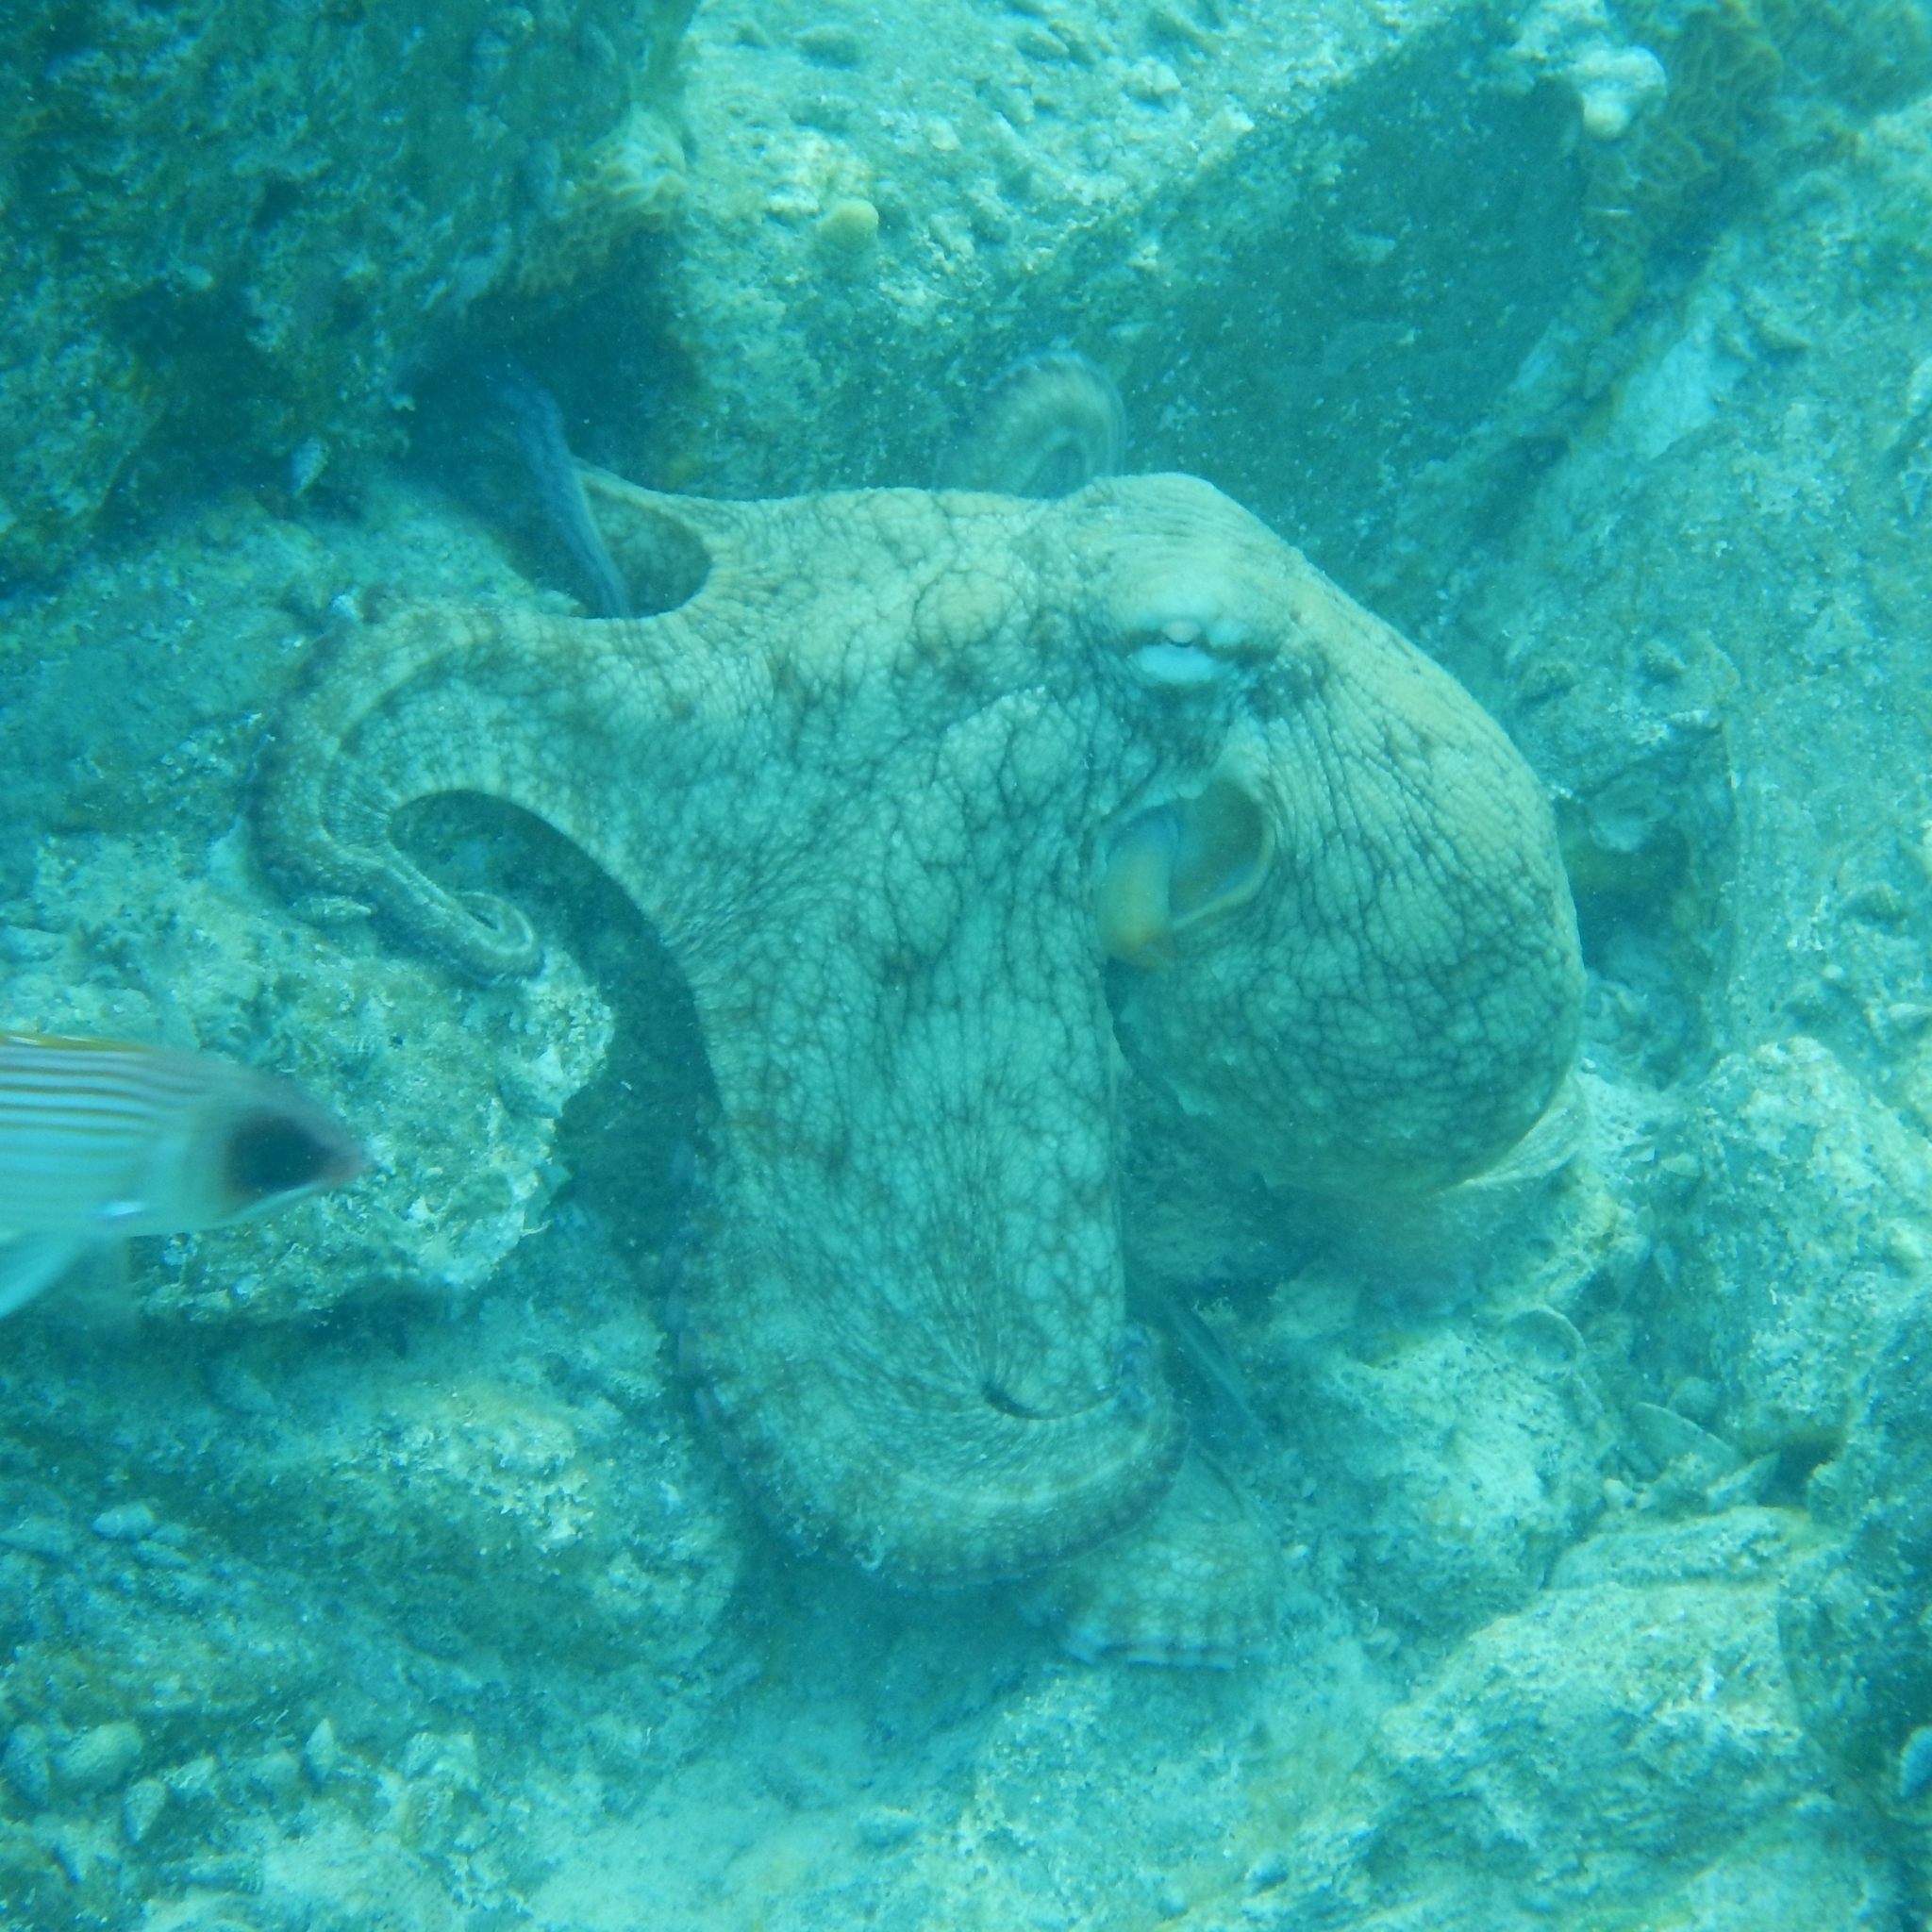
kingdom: Animalia
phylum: Mollusca
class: Cephalopoda
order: Octopoda
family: Octopodidae
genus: Octopus
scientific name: Octopus insularis
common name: Brazil reef octopus
